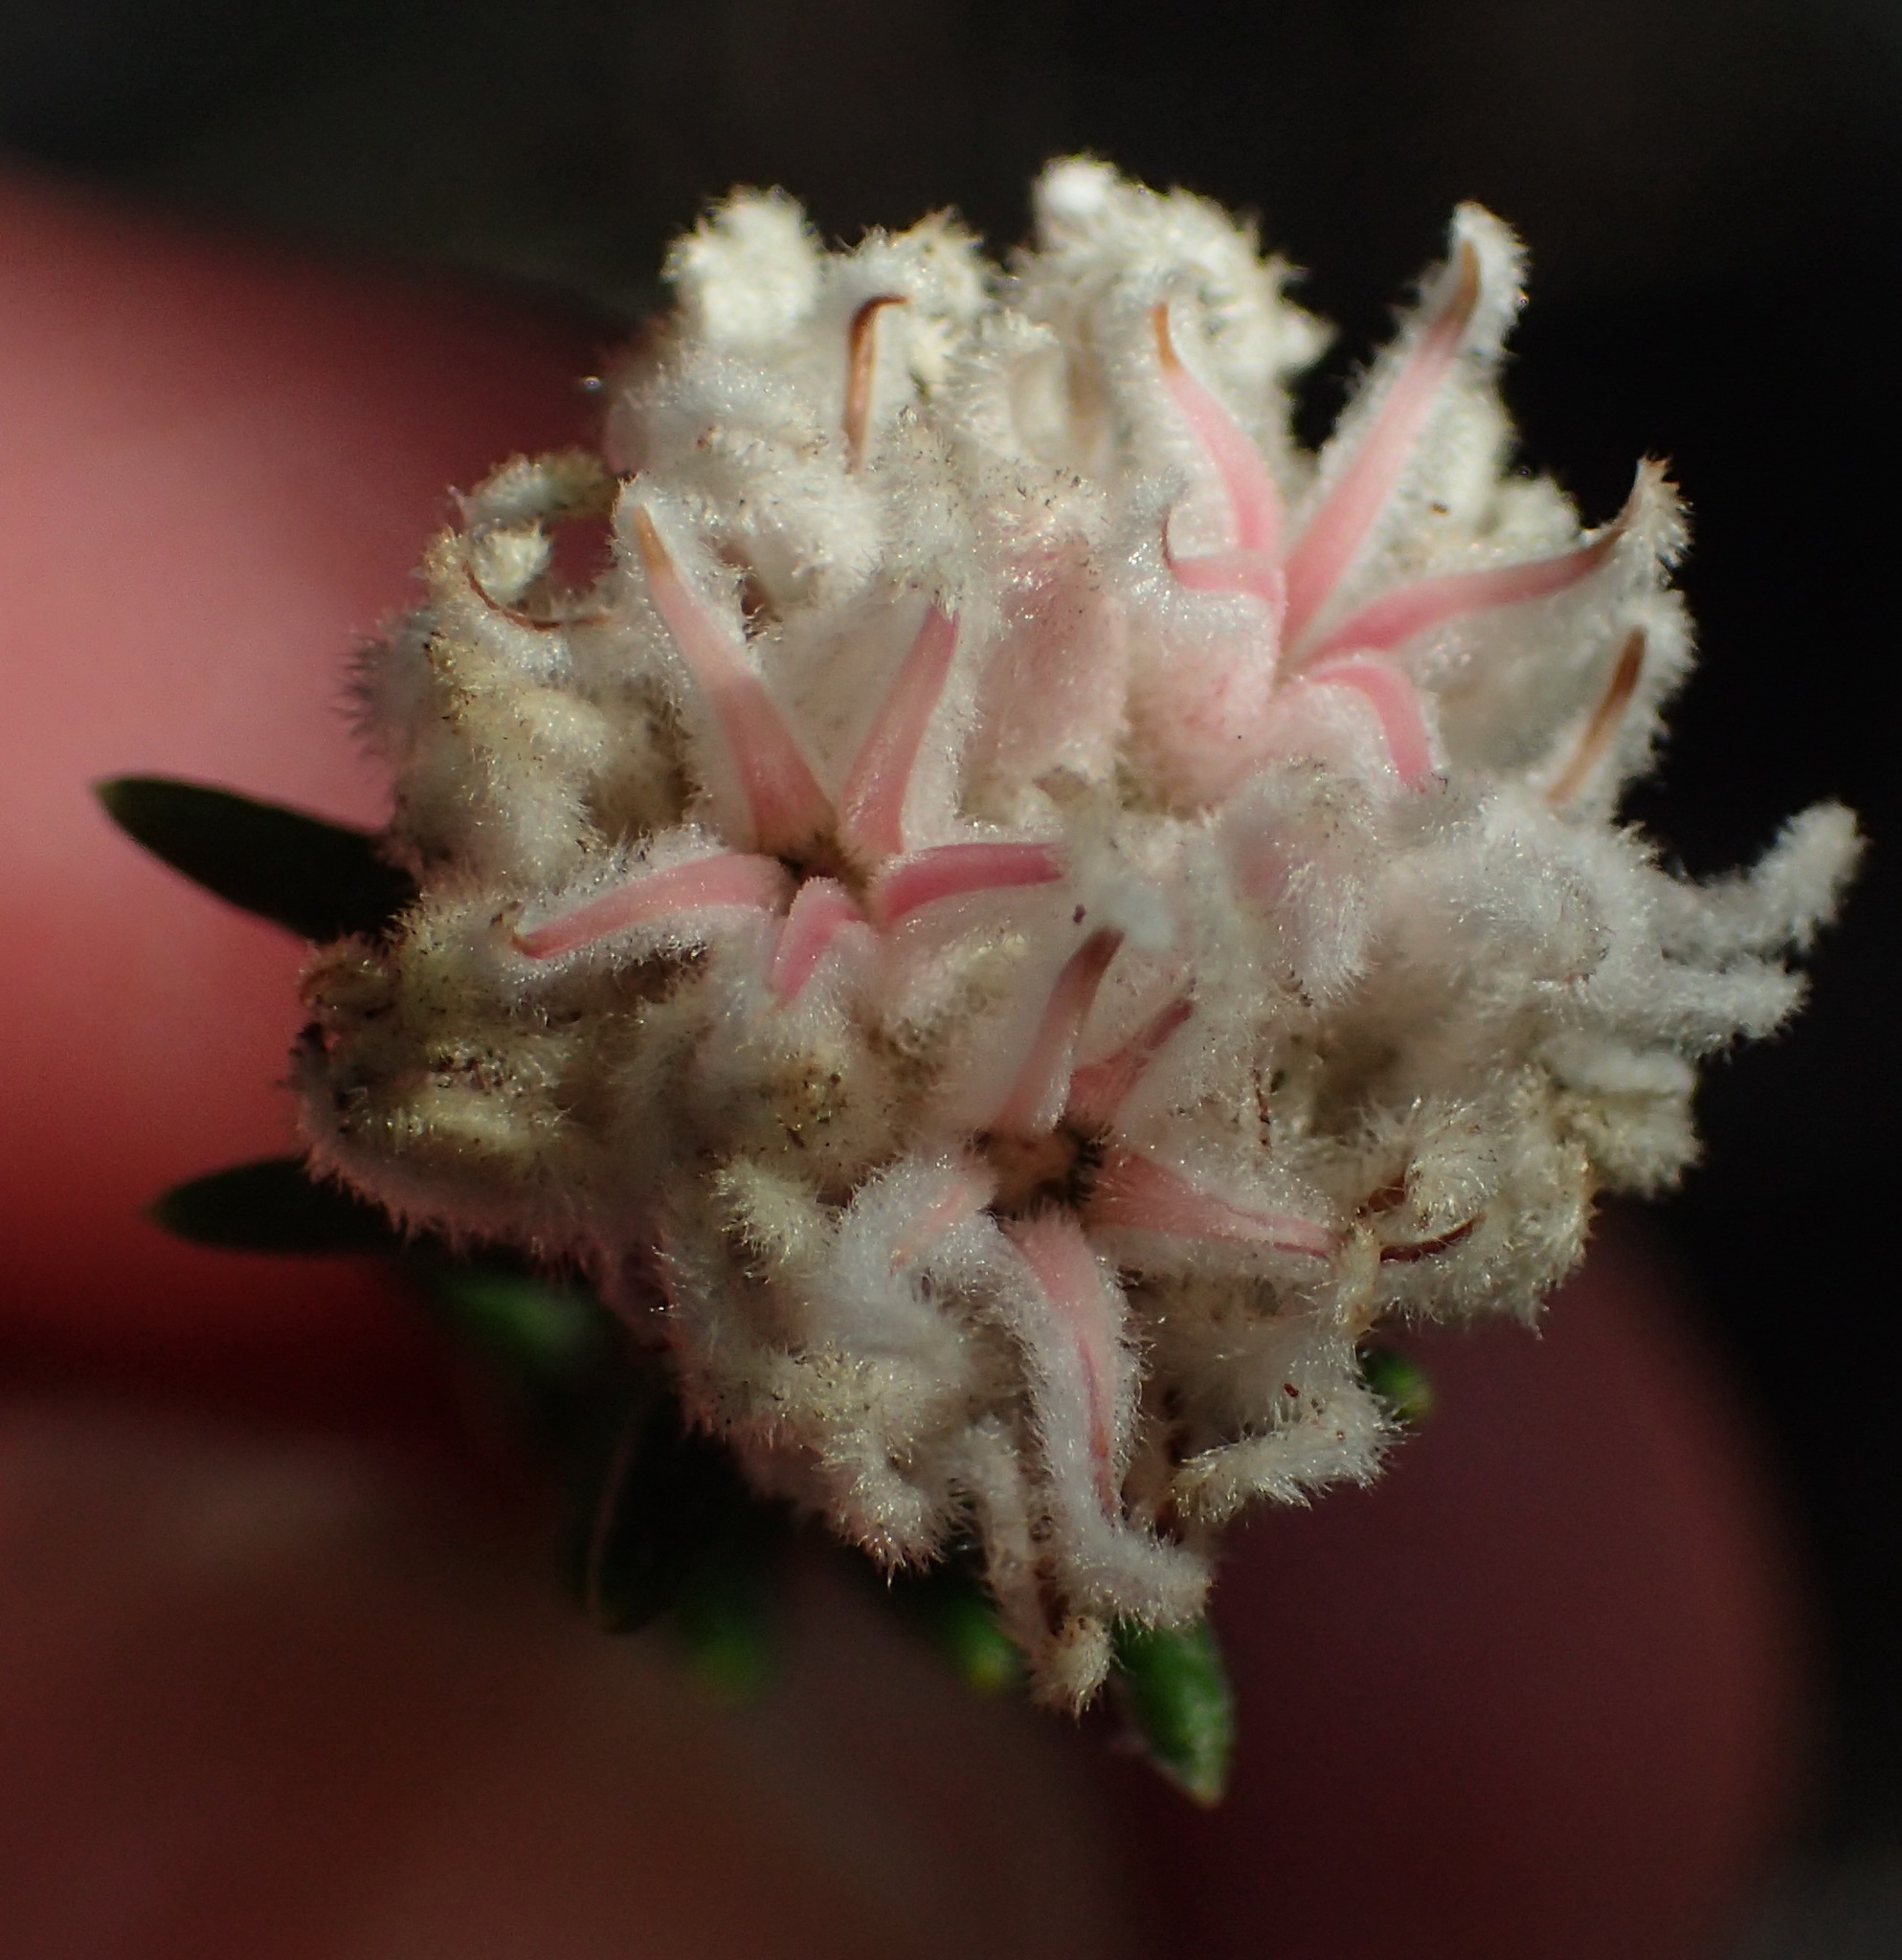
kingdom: Plantae
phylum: Tracheophyta
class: Magnoliopsida
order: Rosales
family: Rhamnaceae
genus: Trichocephalus
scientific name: Trichocephalus stipularis
